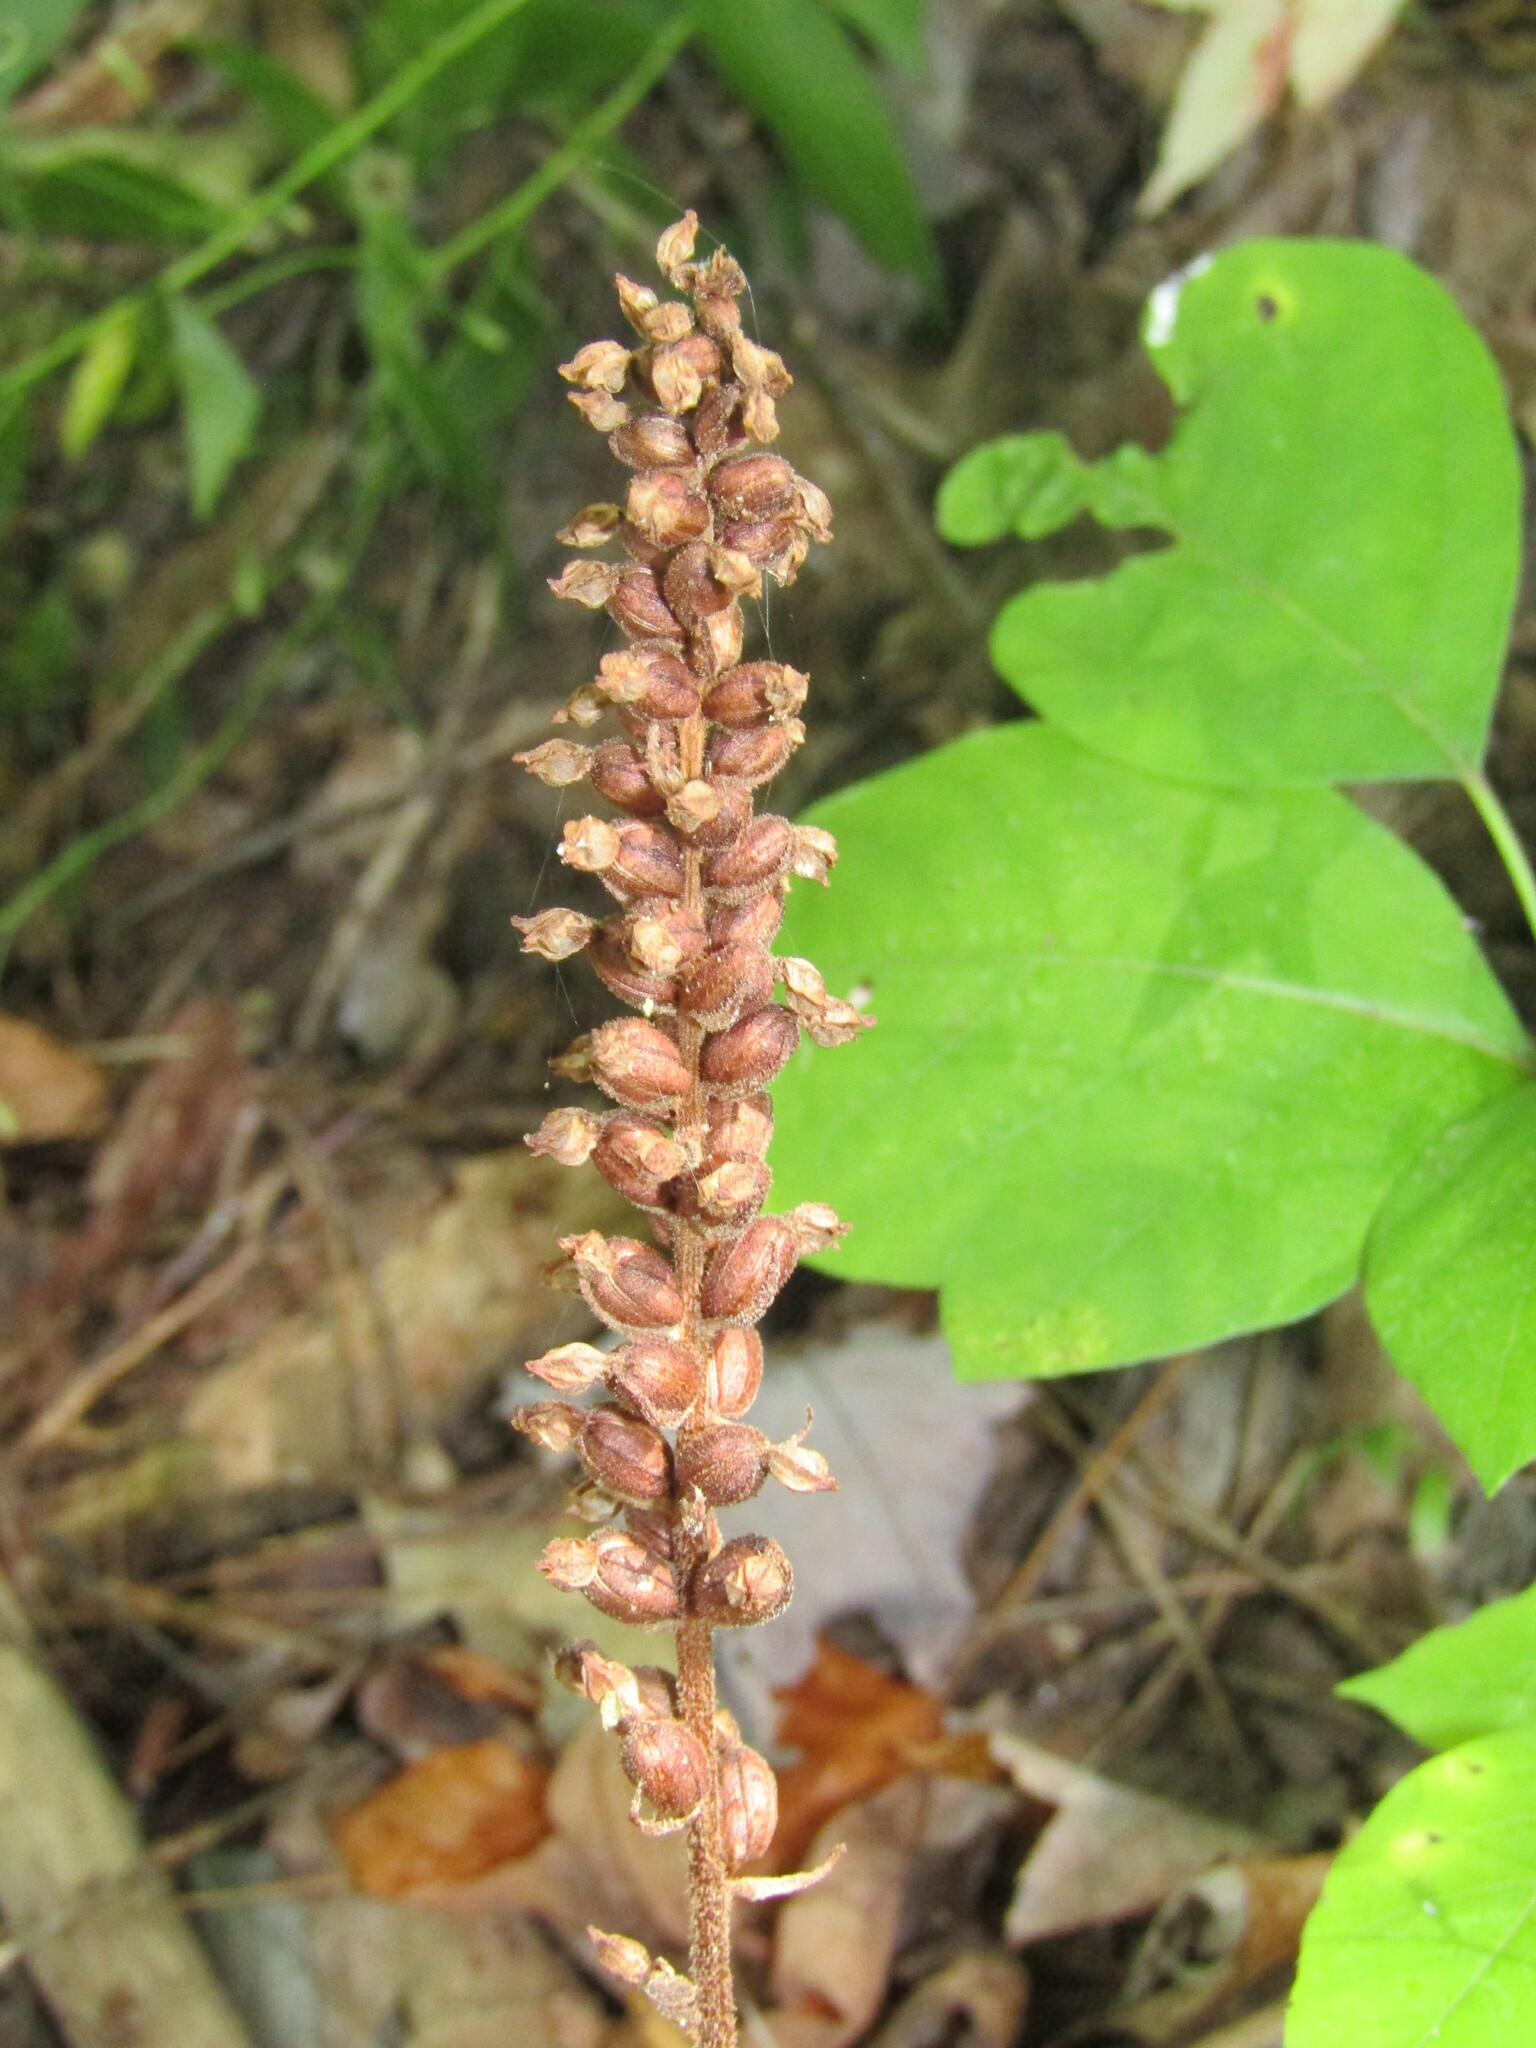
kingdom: Plantae
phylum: Tracheophyta
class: Liliopsida
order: Asparagales
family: Orchidaceae
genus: Goodyera
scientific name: Goodyera pubescens
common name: Downy rattlesnake-plantain
